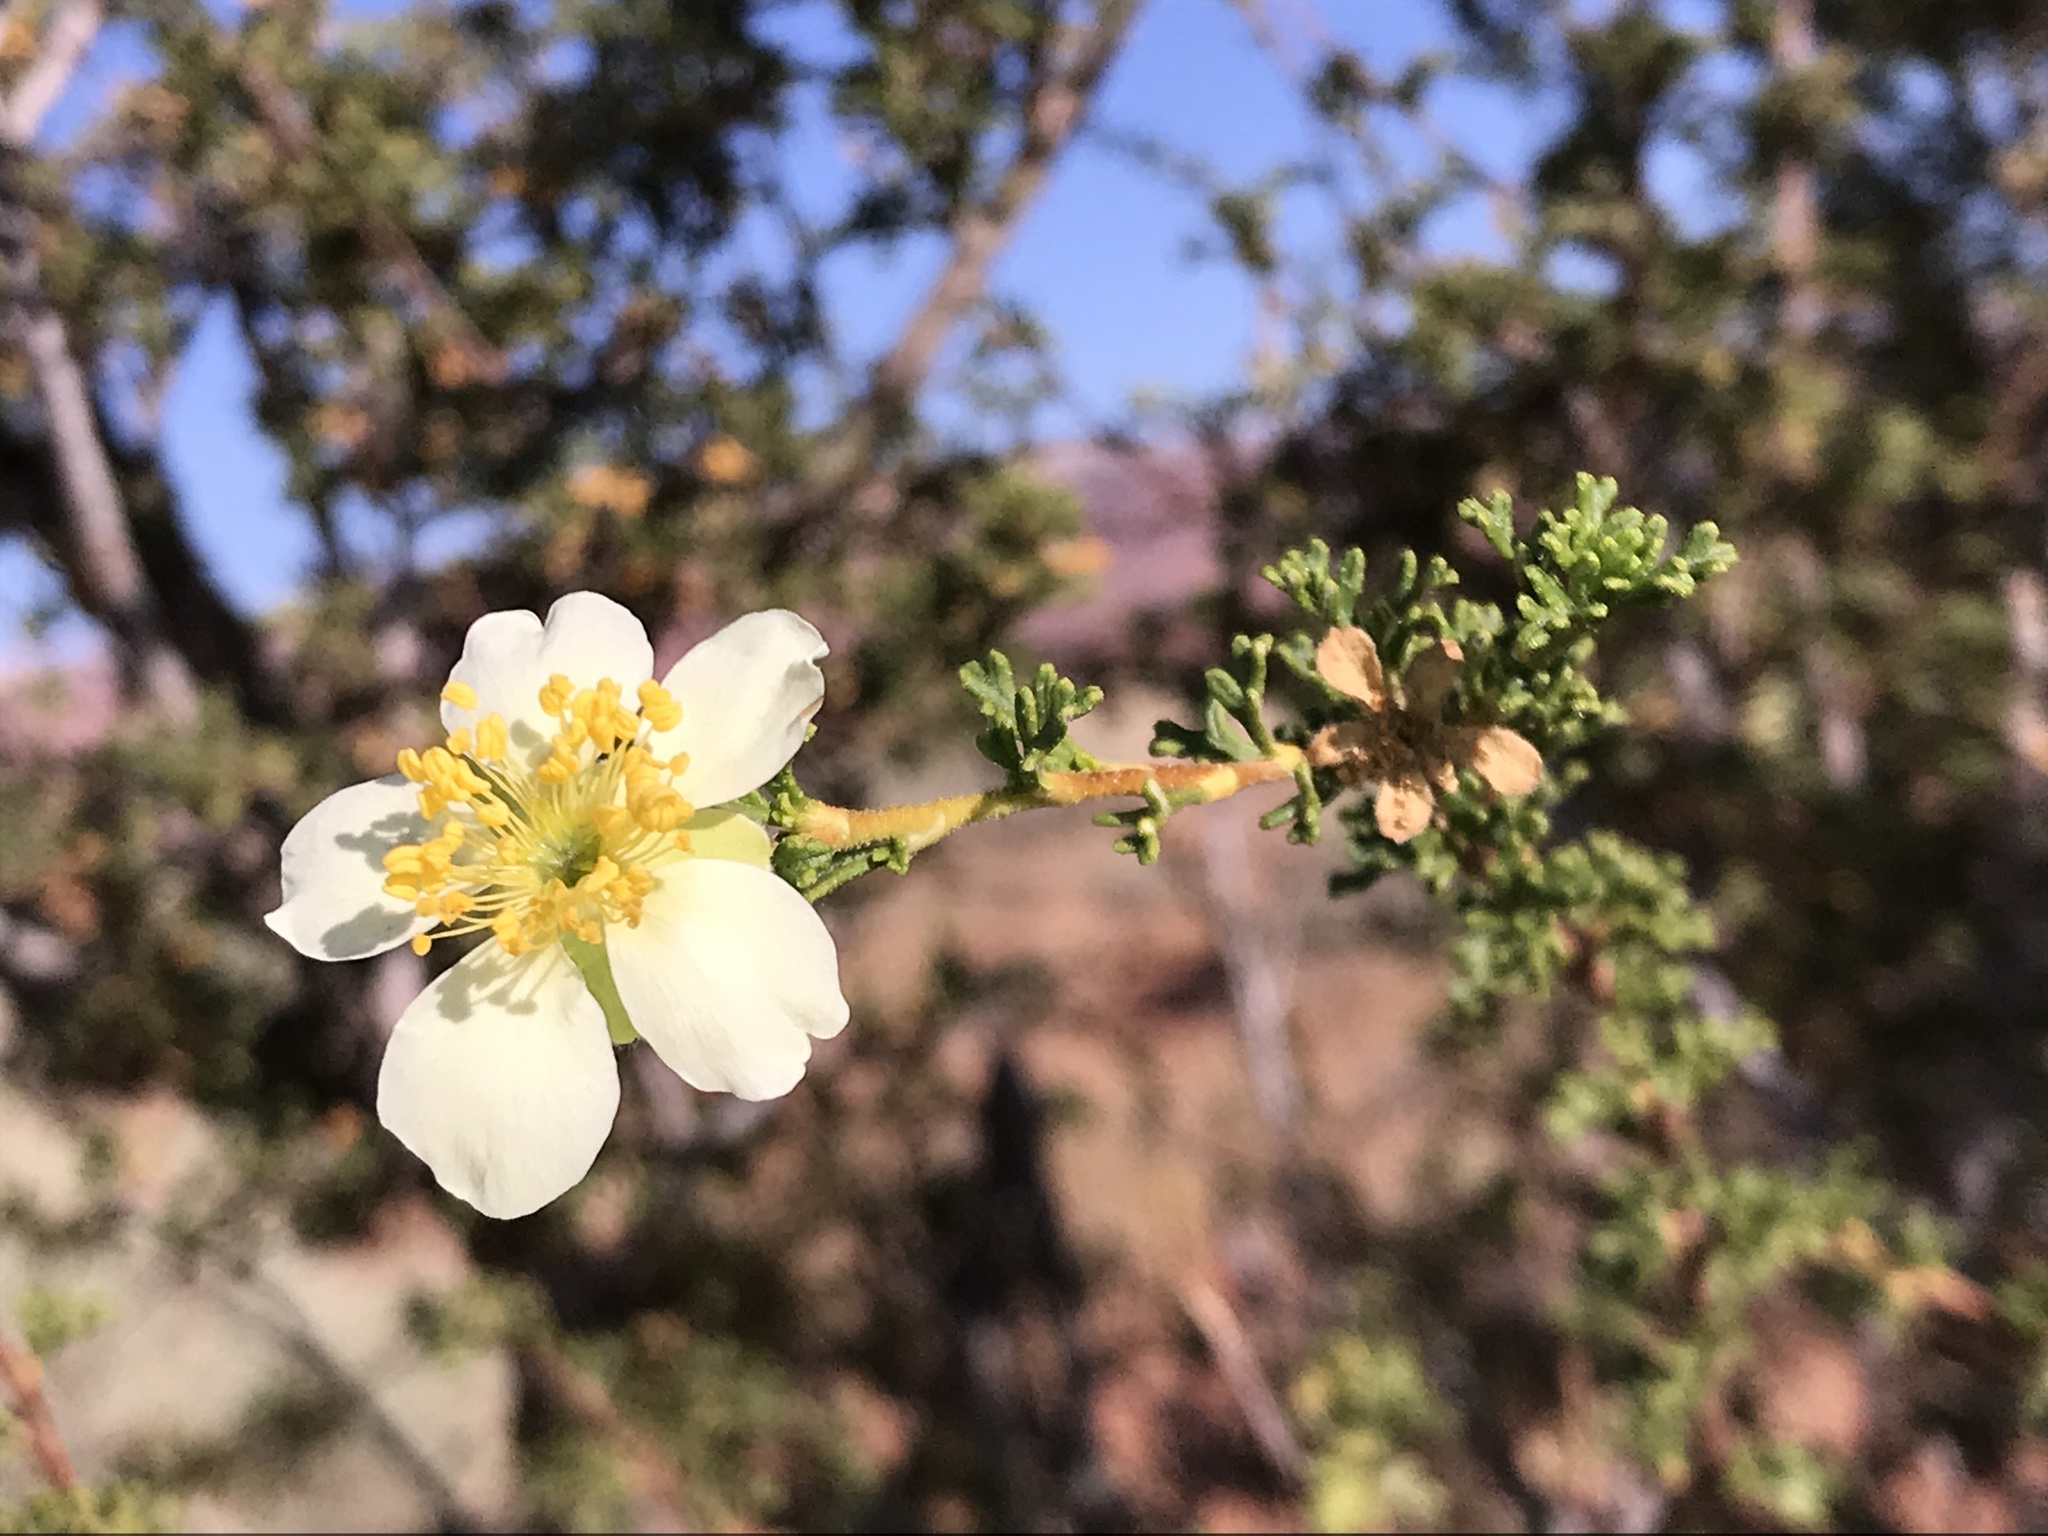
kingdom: Plantae
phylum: Tracheophyta
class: Magnoliopsida
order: Rosales
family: Rosaceae
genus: Purshia
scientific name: Purshia stansburiana
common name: Stansbury's cliffrose
